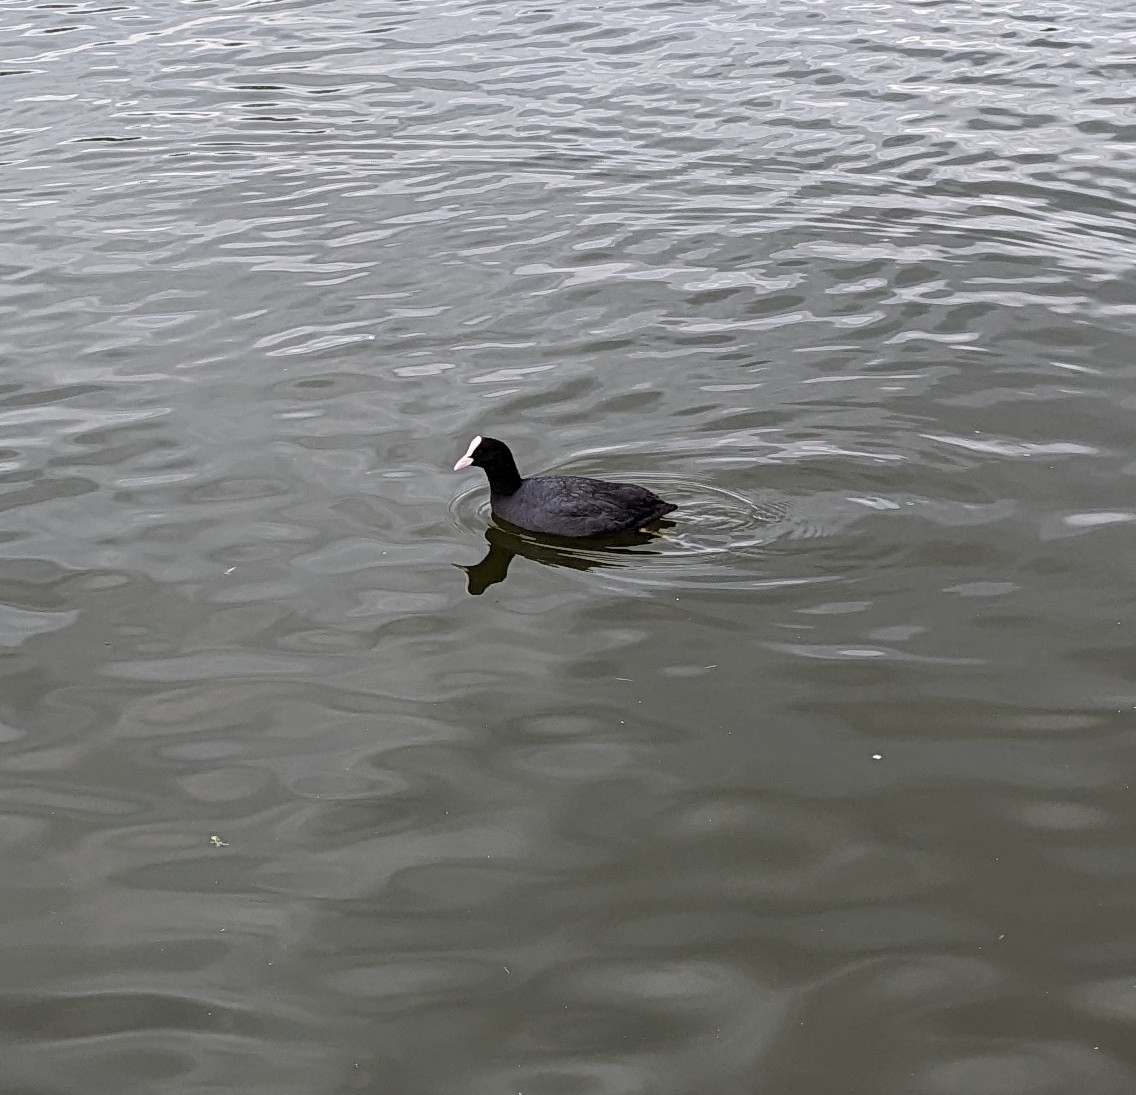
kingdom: Animalia
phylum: Chordata
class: Aves
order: Gruiformes
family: Rallidae
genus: Fulica
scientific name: Fulica atra
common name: Eurasian coot
